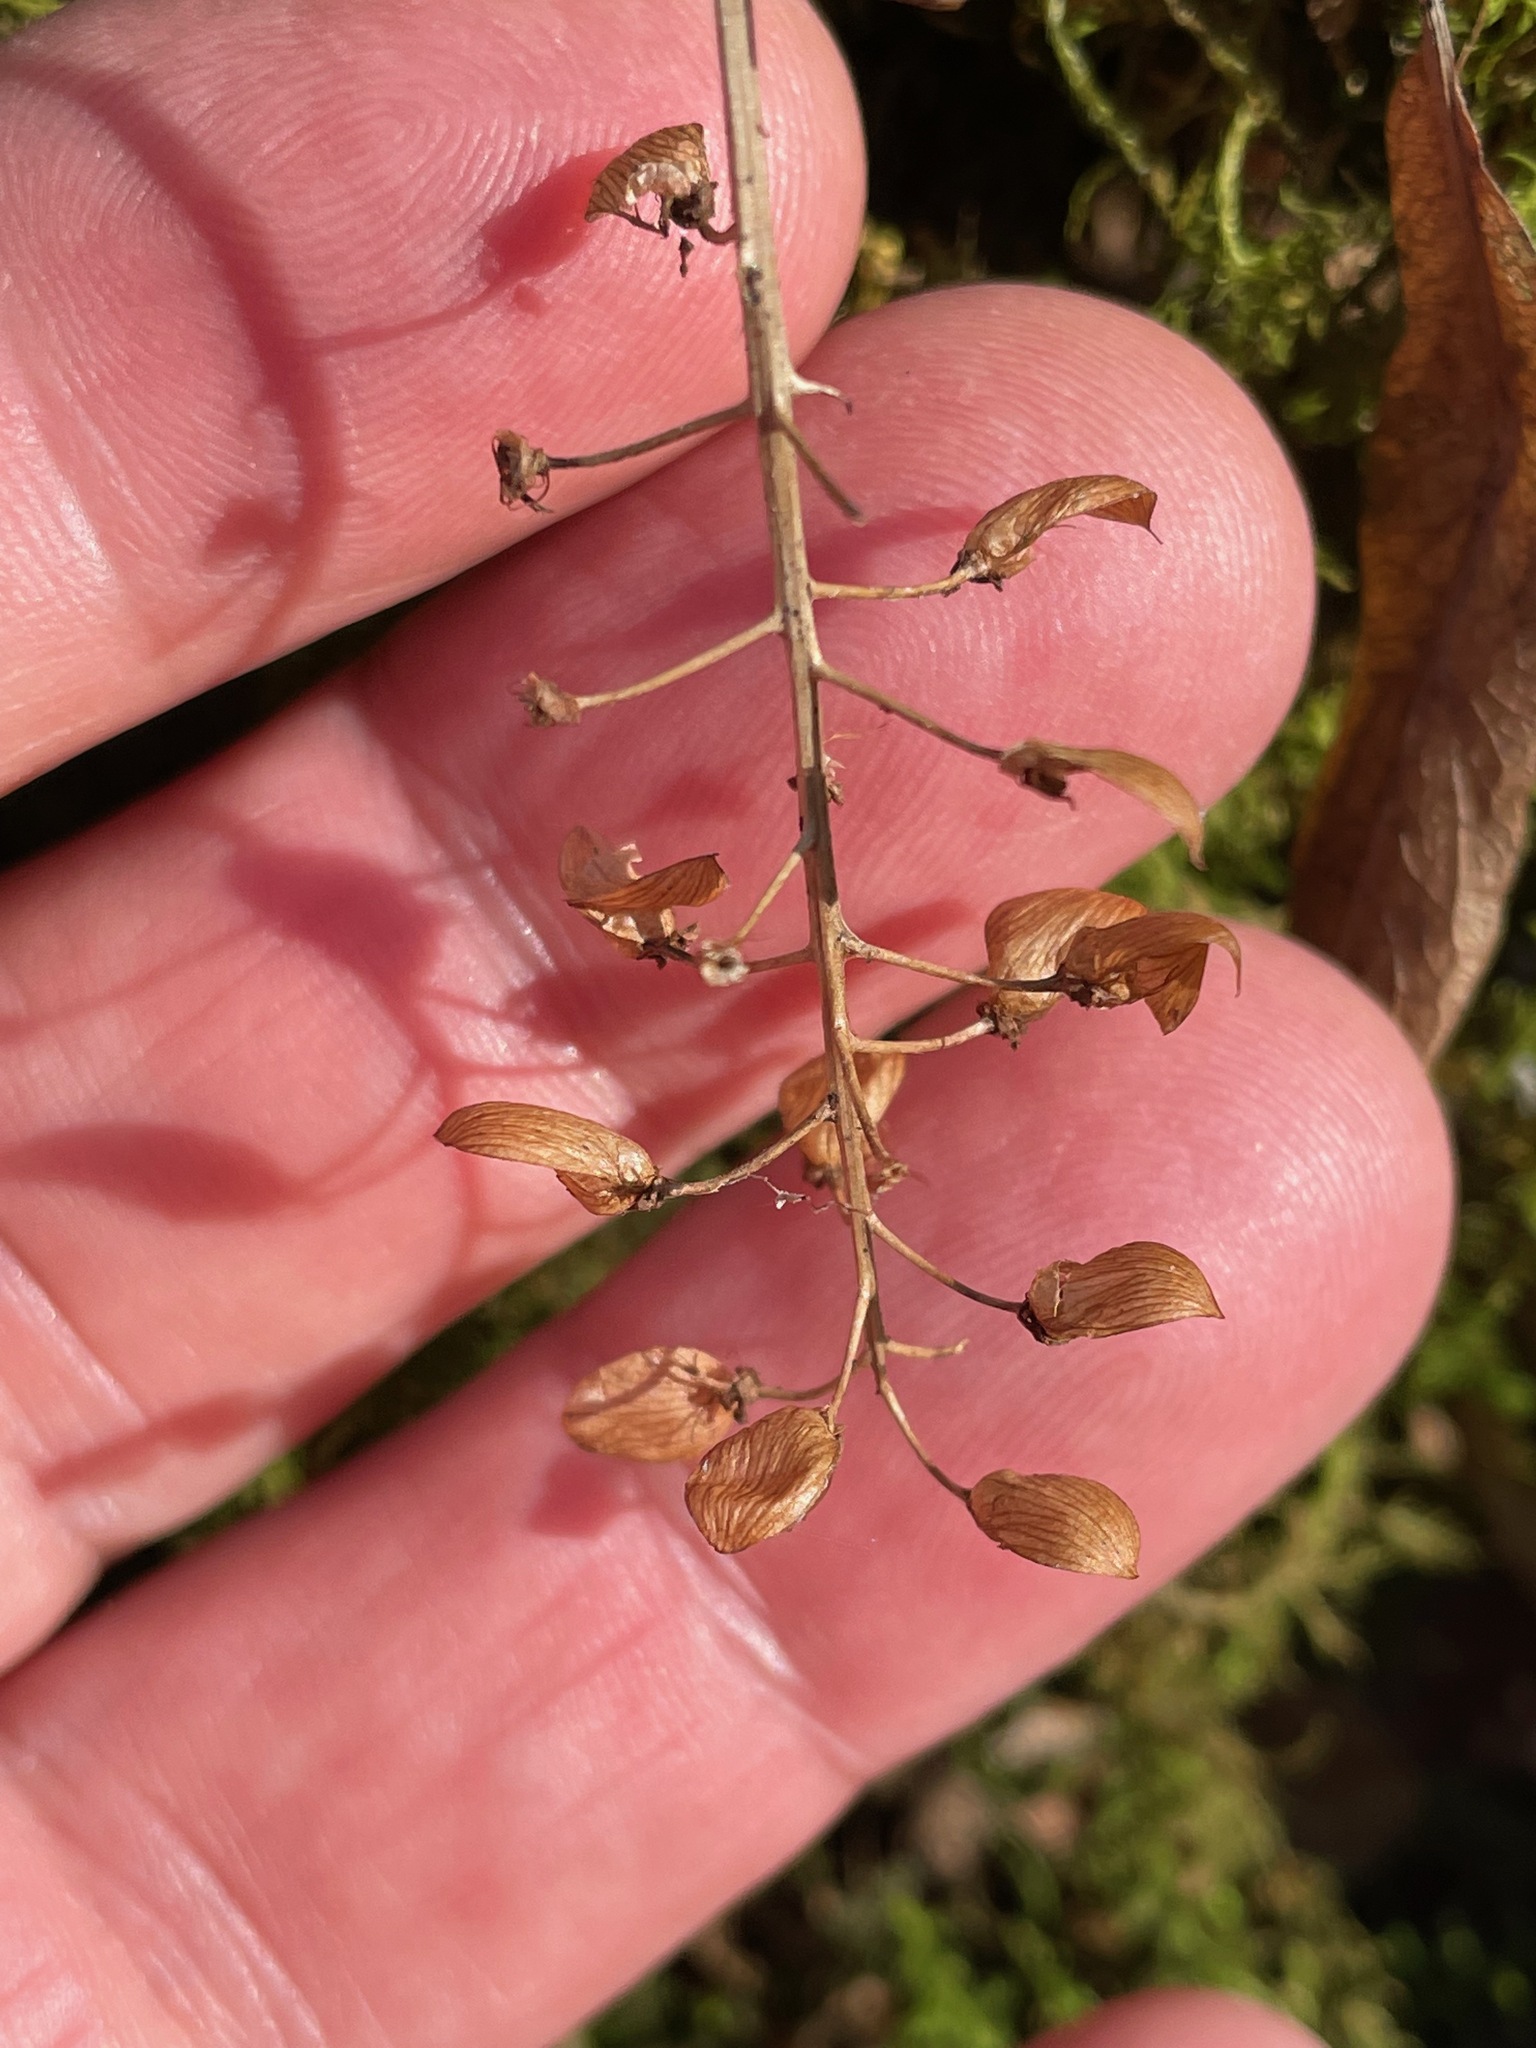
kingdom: Plantae
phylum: Tracheophyta
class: Magnoliopsida
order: Saxifragales
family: Saxifragaceae
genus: Tiarella
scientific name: Tiarella stolonifera
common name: Stoloniferous foamflower
